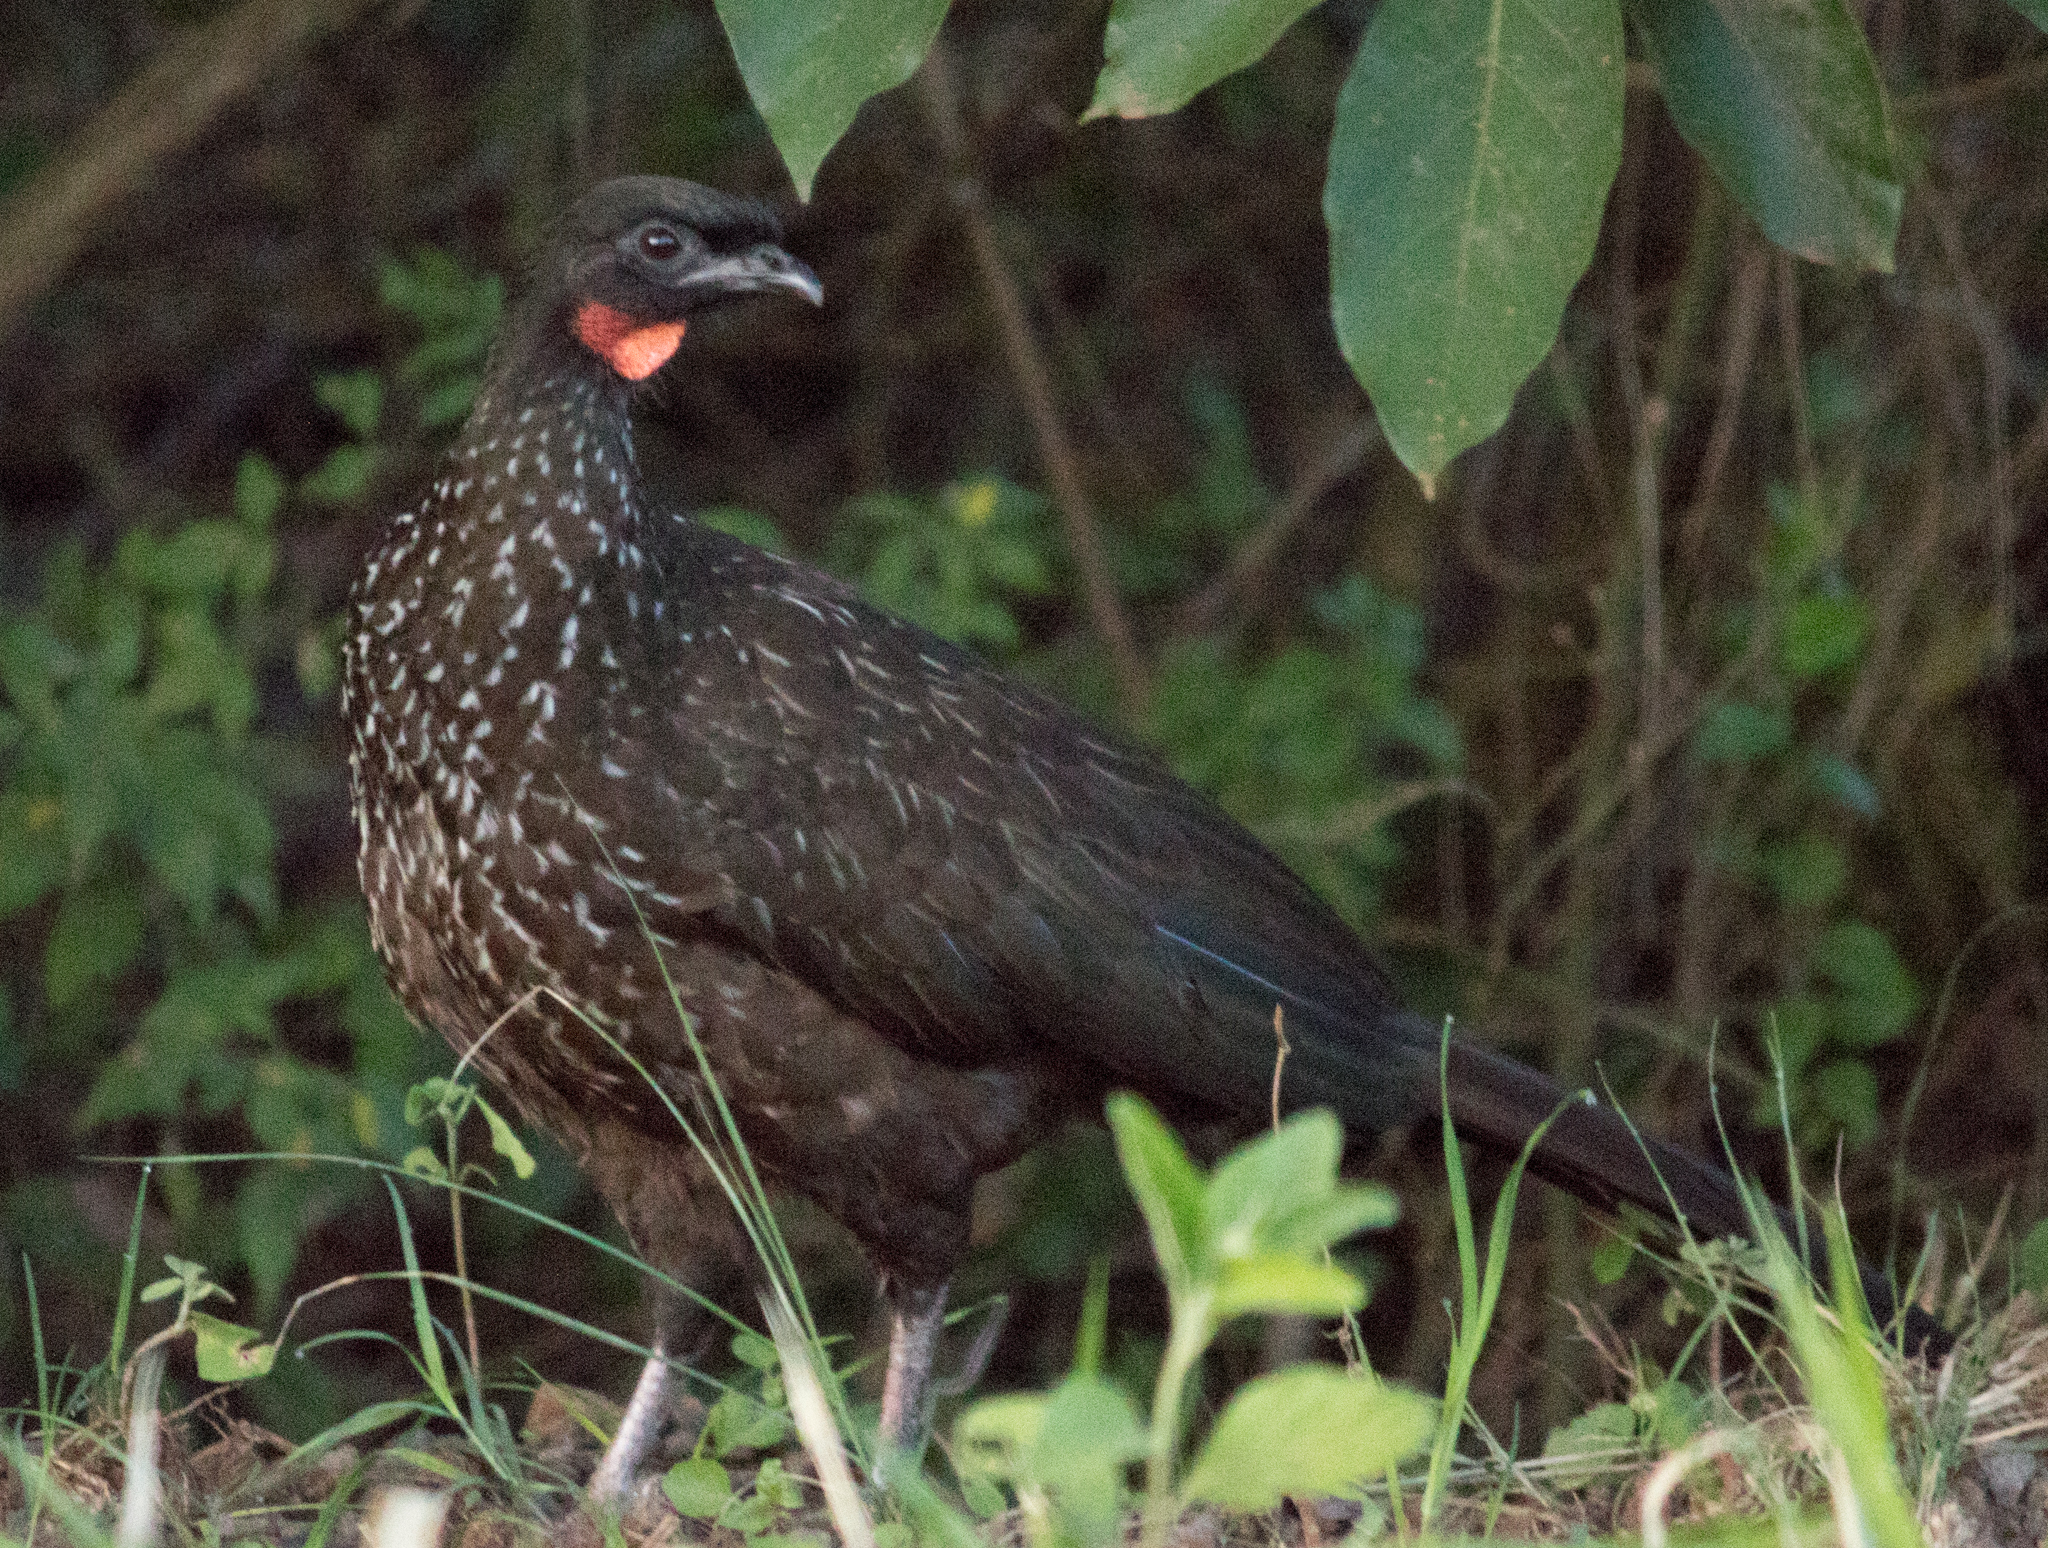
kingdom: Animalia
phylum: Chordata
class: Aves
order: Galliformes
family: Cracidae
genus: Penelope
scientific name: Penelope obscura
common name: Dusky-legged guan
